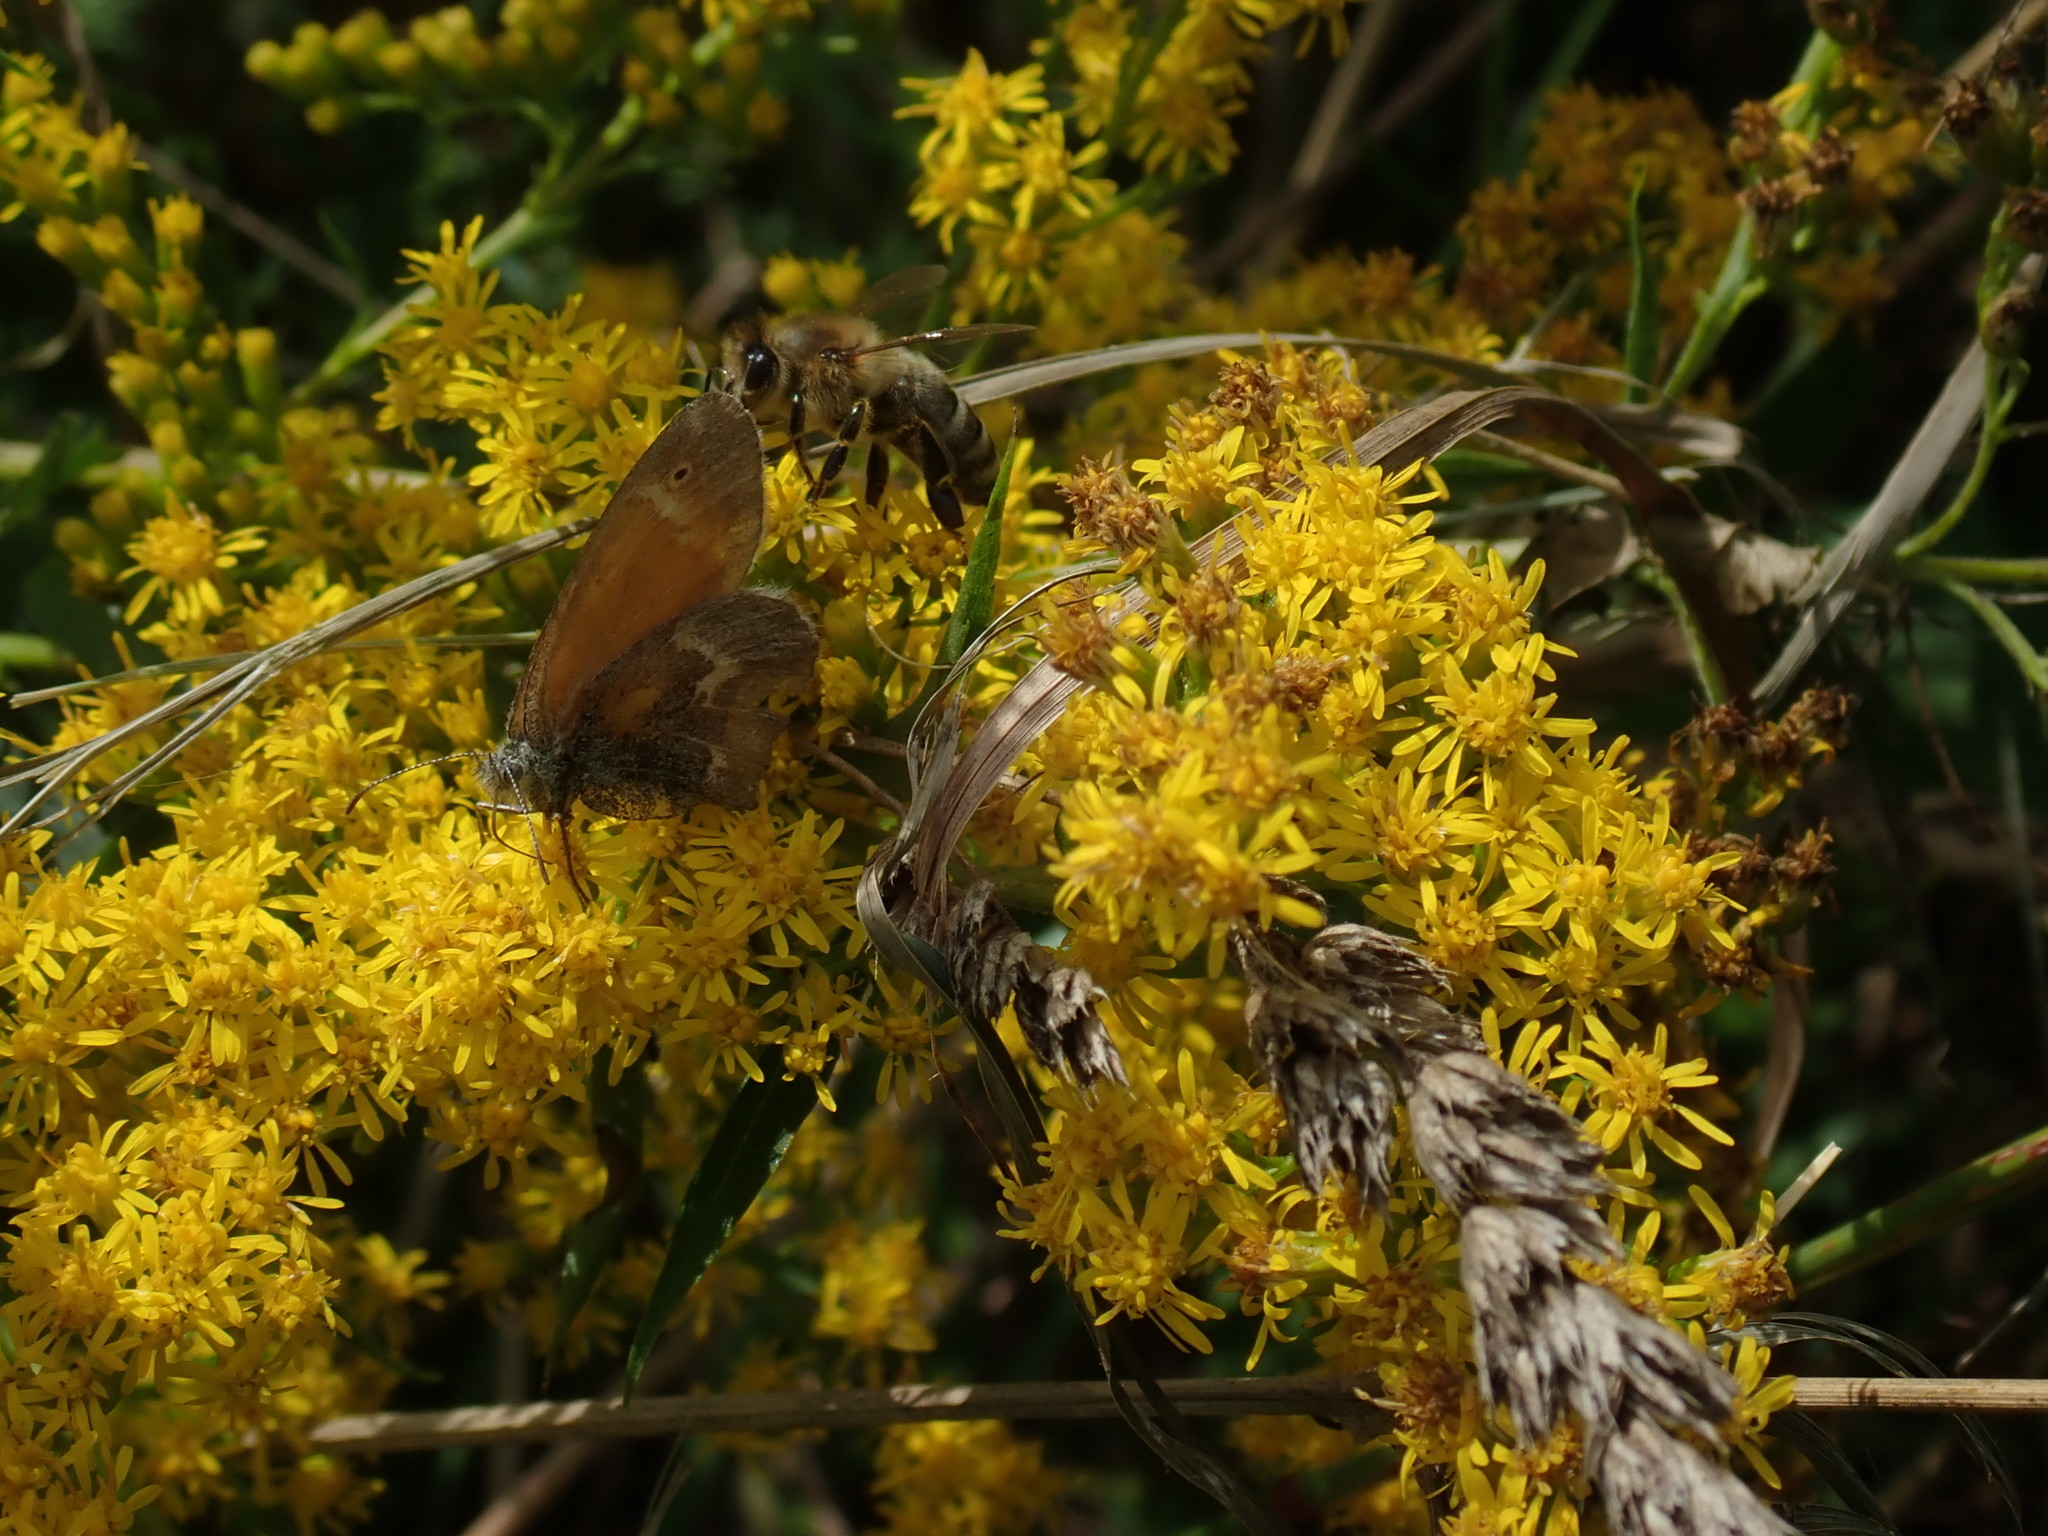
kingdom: Animalia
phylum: Arthropoda
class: Insecta
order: Lepidoptera
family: Nymphalidae
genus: Coenonympha
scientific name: Coenonympha california
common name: Common ringlet
